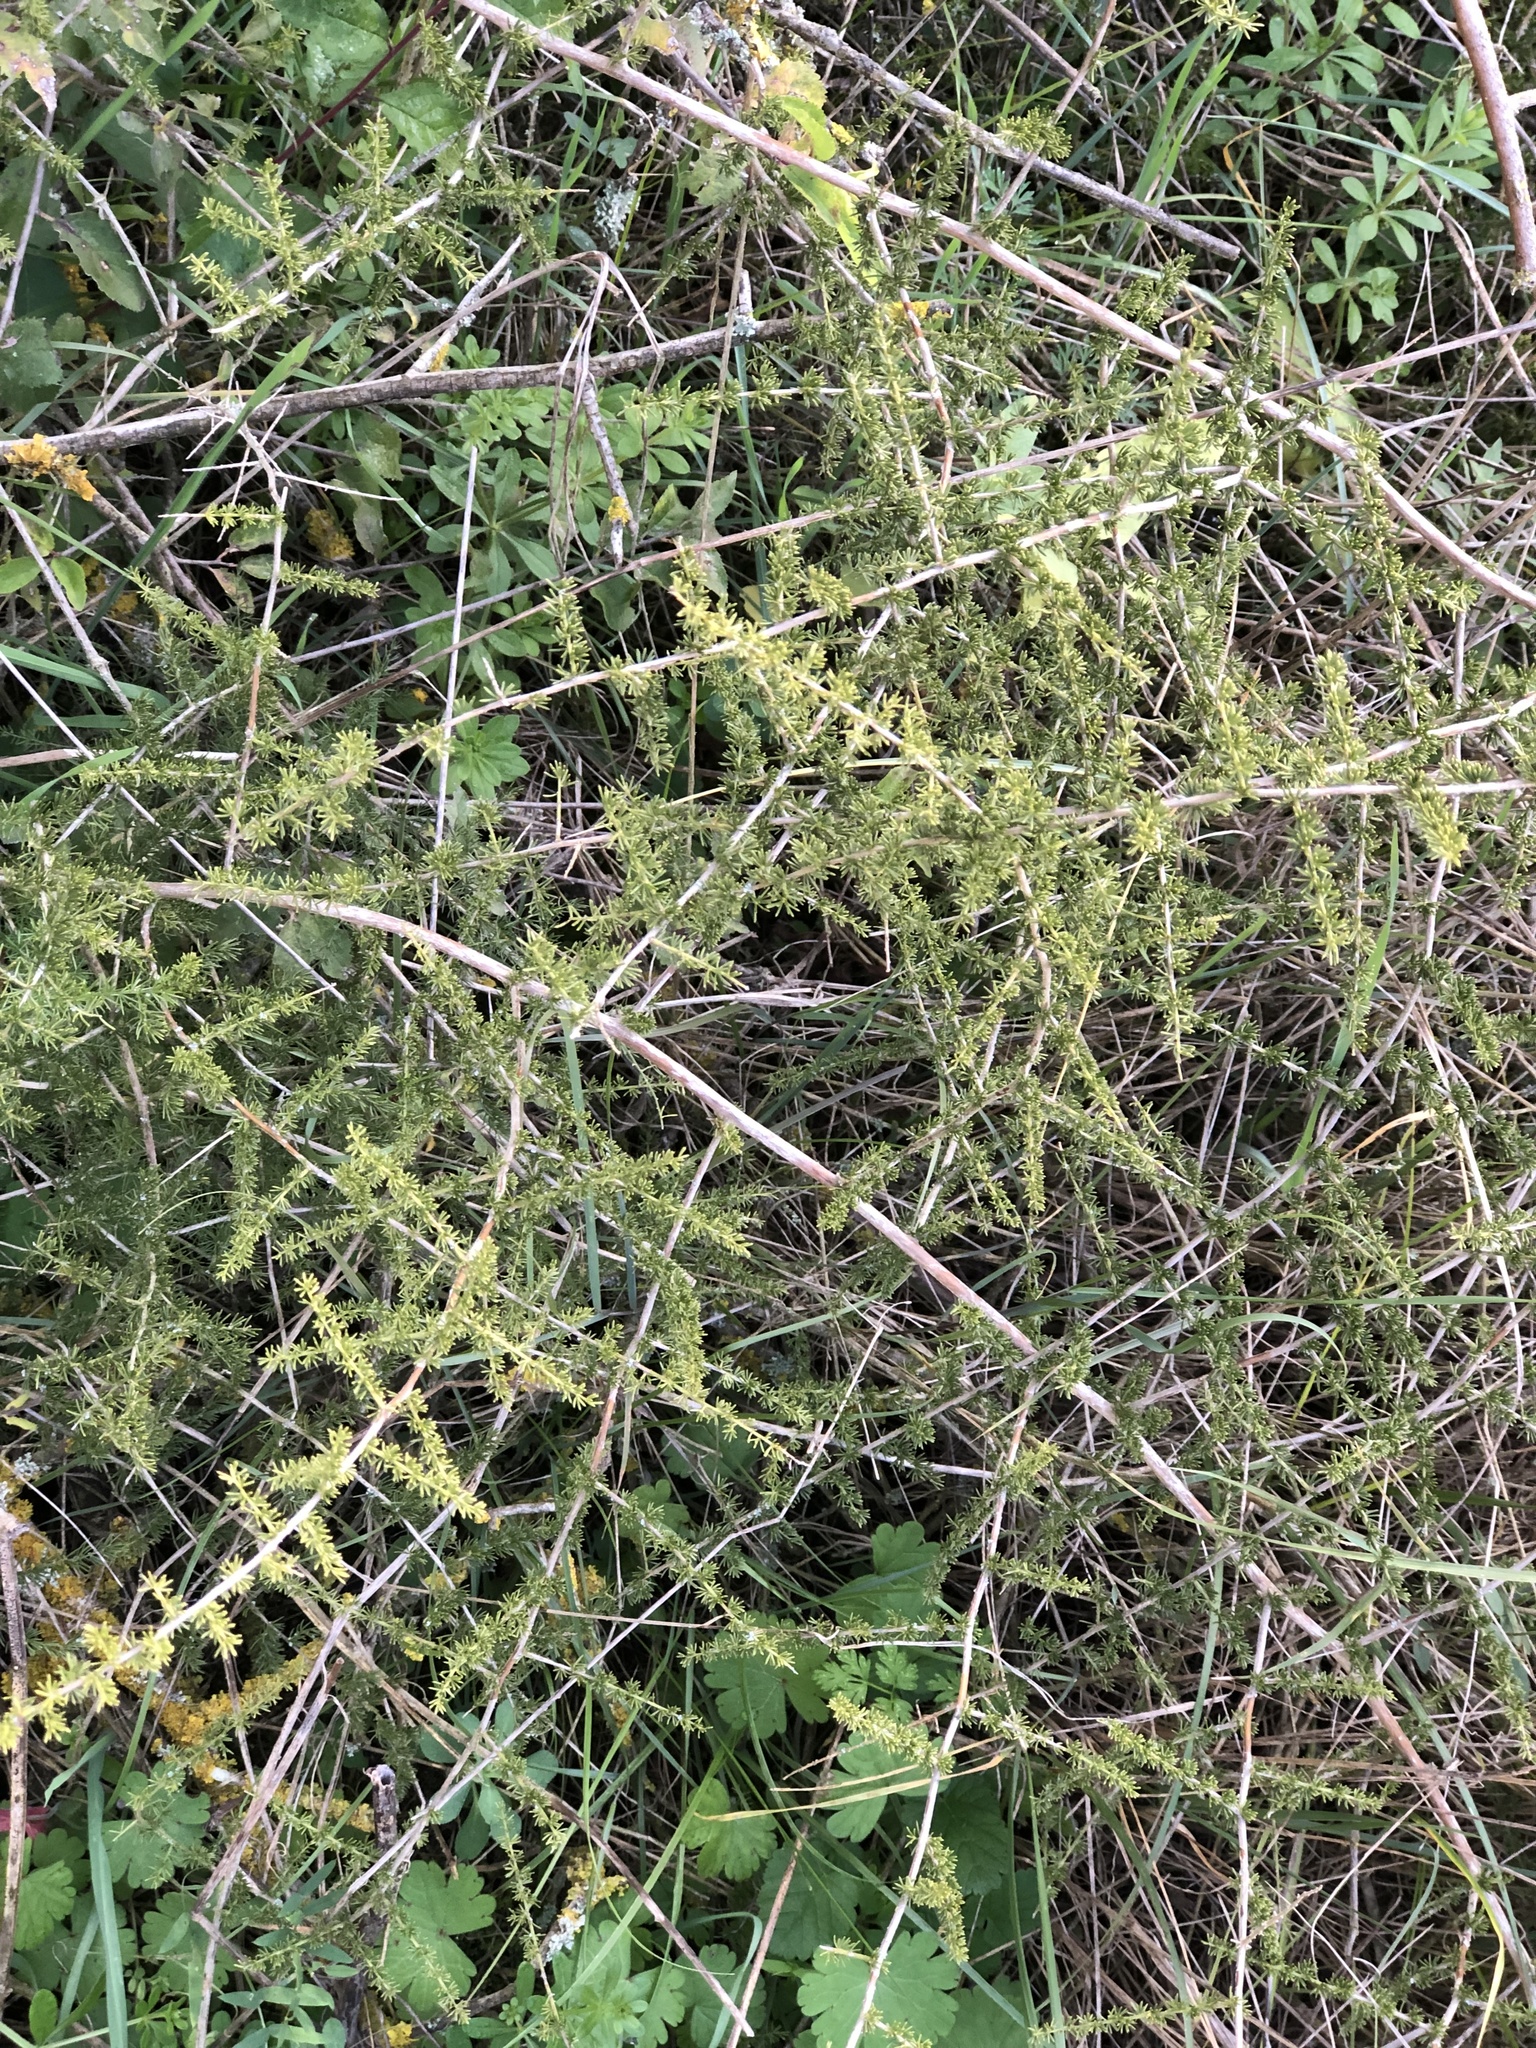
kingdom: Plantae
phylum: Tracheophyta
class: Liliopsida
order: Asparagales
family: Asparagaceae
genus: Asparagus
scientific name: Asparagus acutifolius
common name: Wild asparagus
